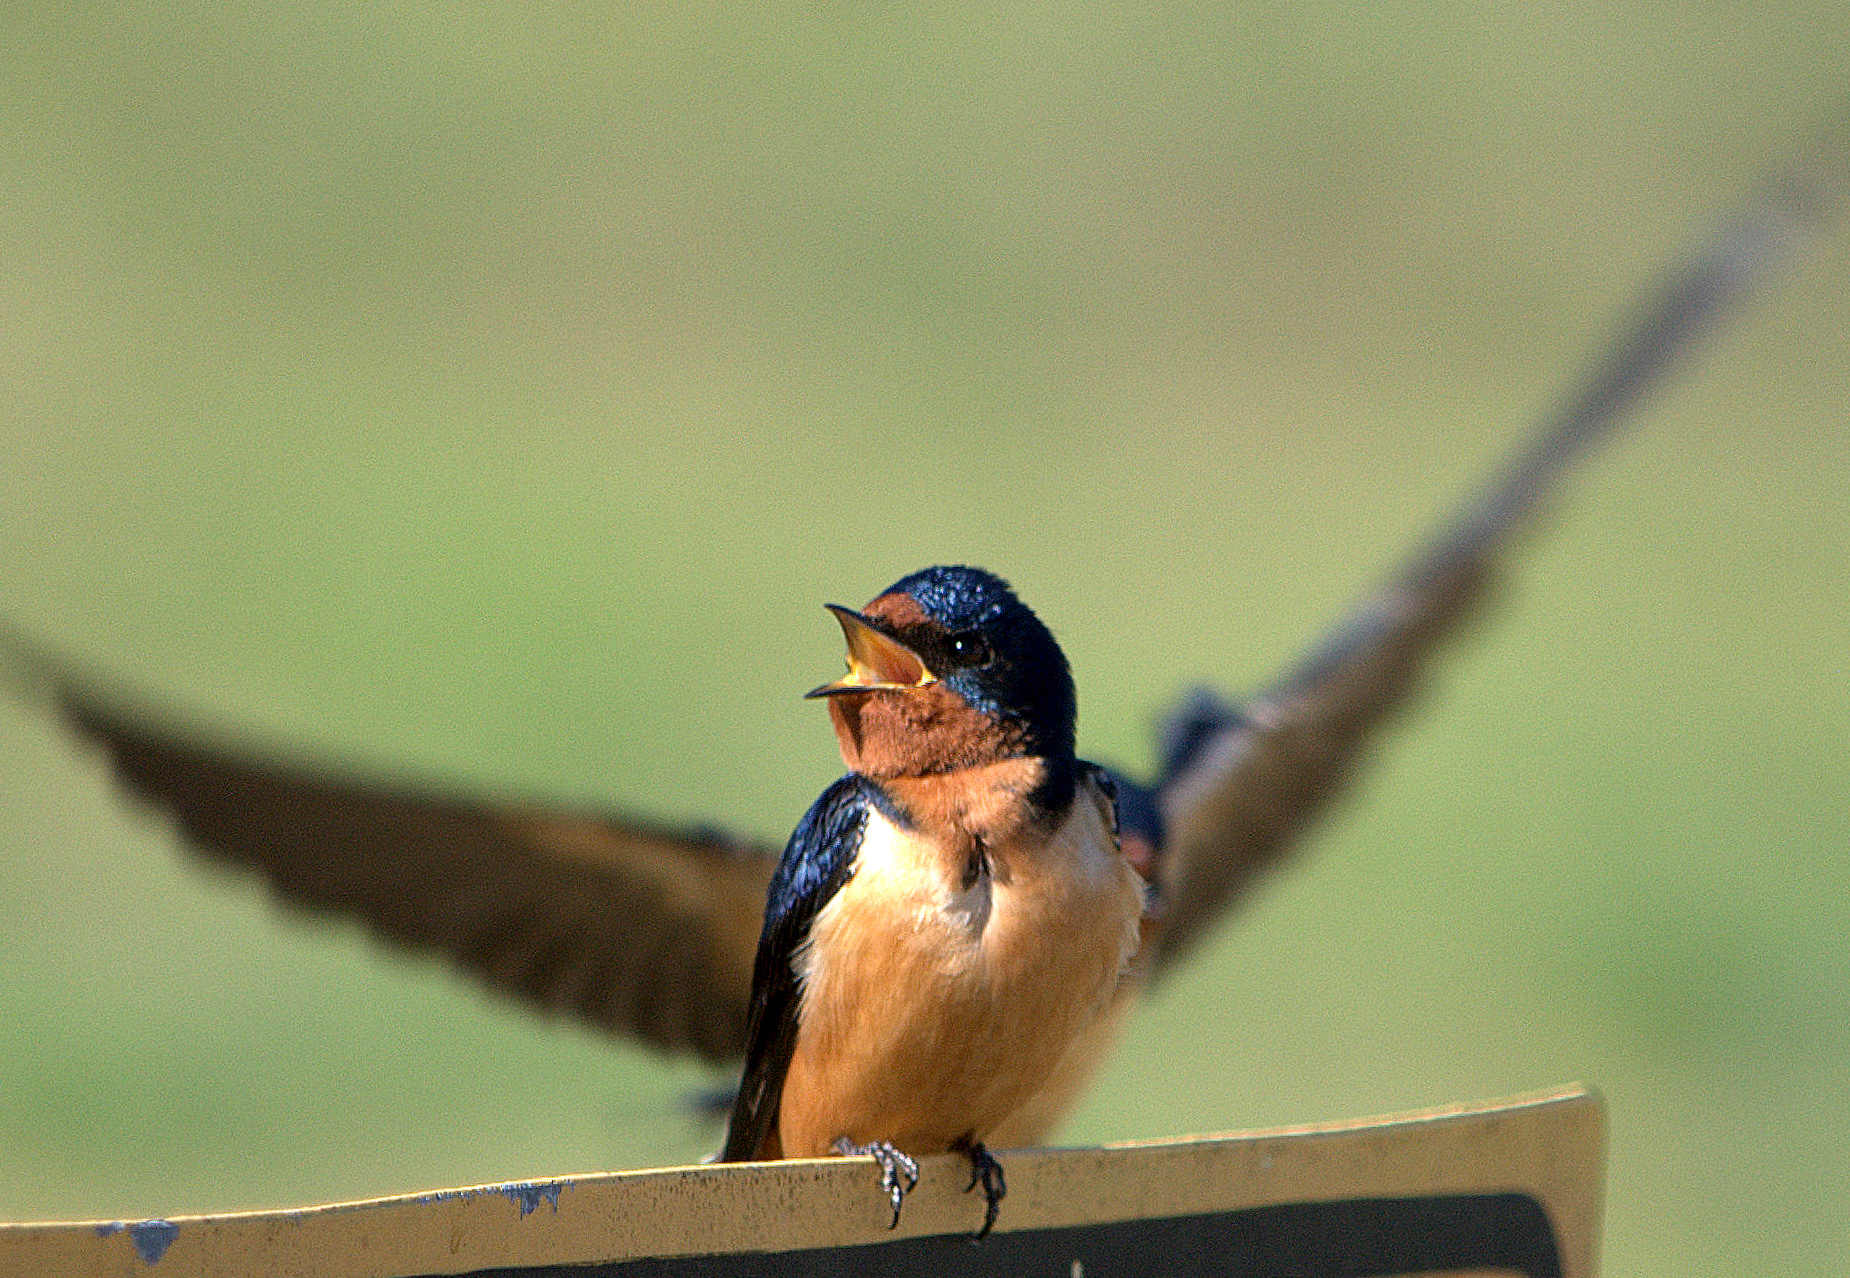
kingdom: Animalia
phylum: Chordata
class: Aves
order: Passeriformes
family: Hirundinidae
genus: Hirundo
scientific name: Hirundo rustica
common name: Barn swallow
